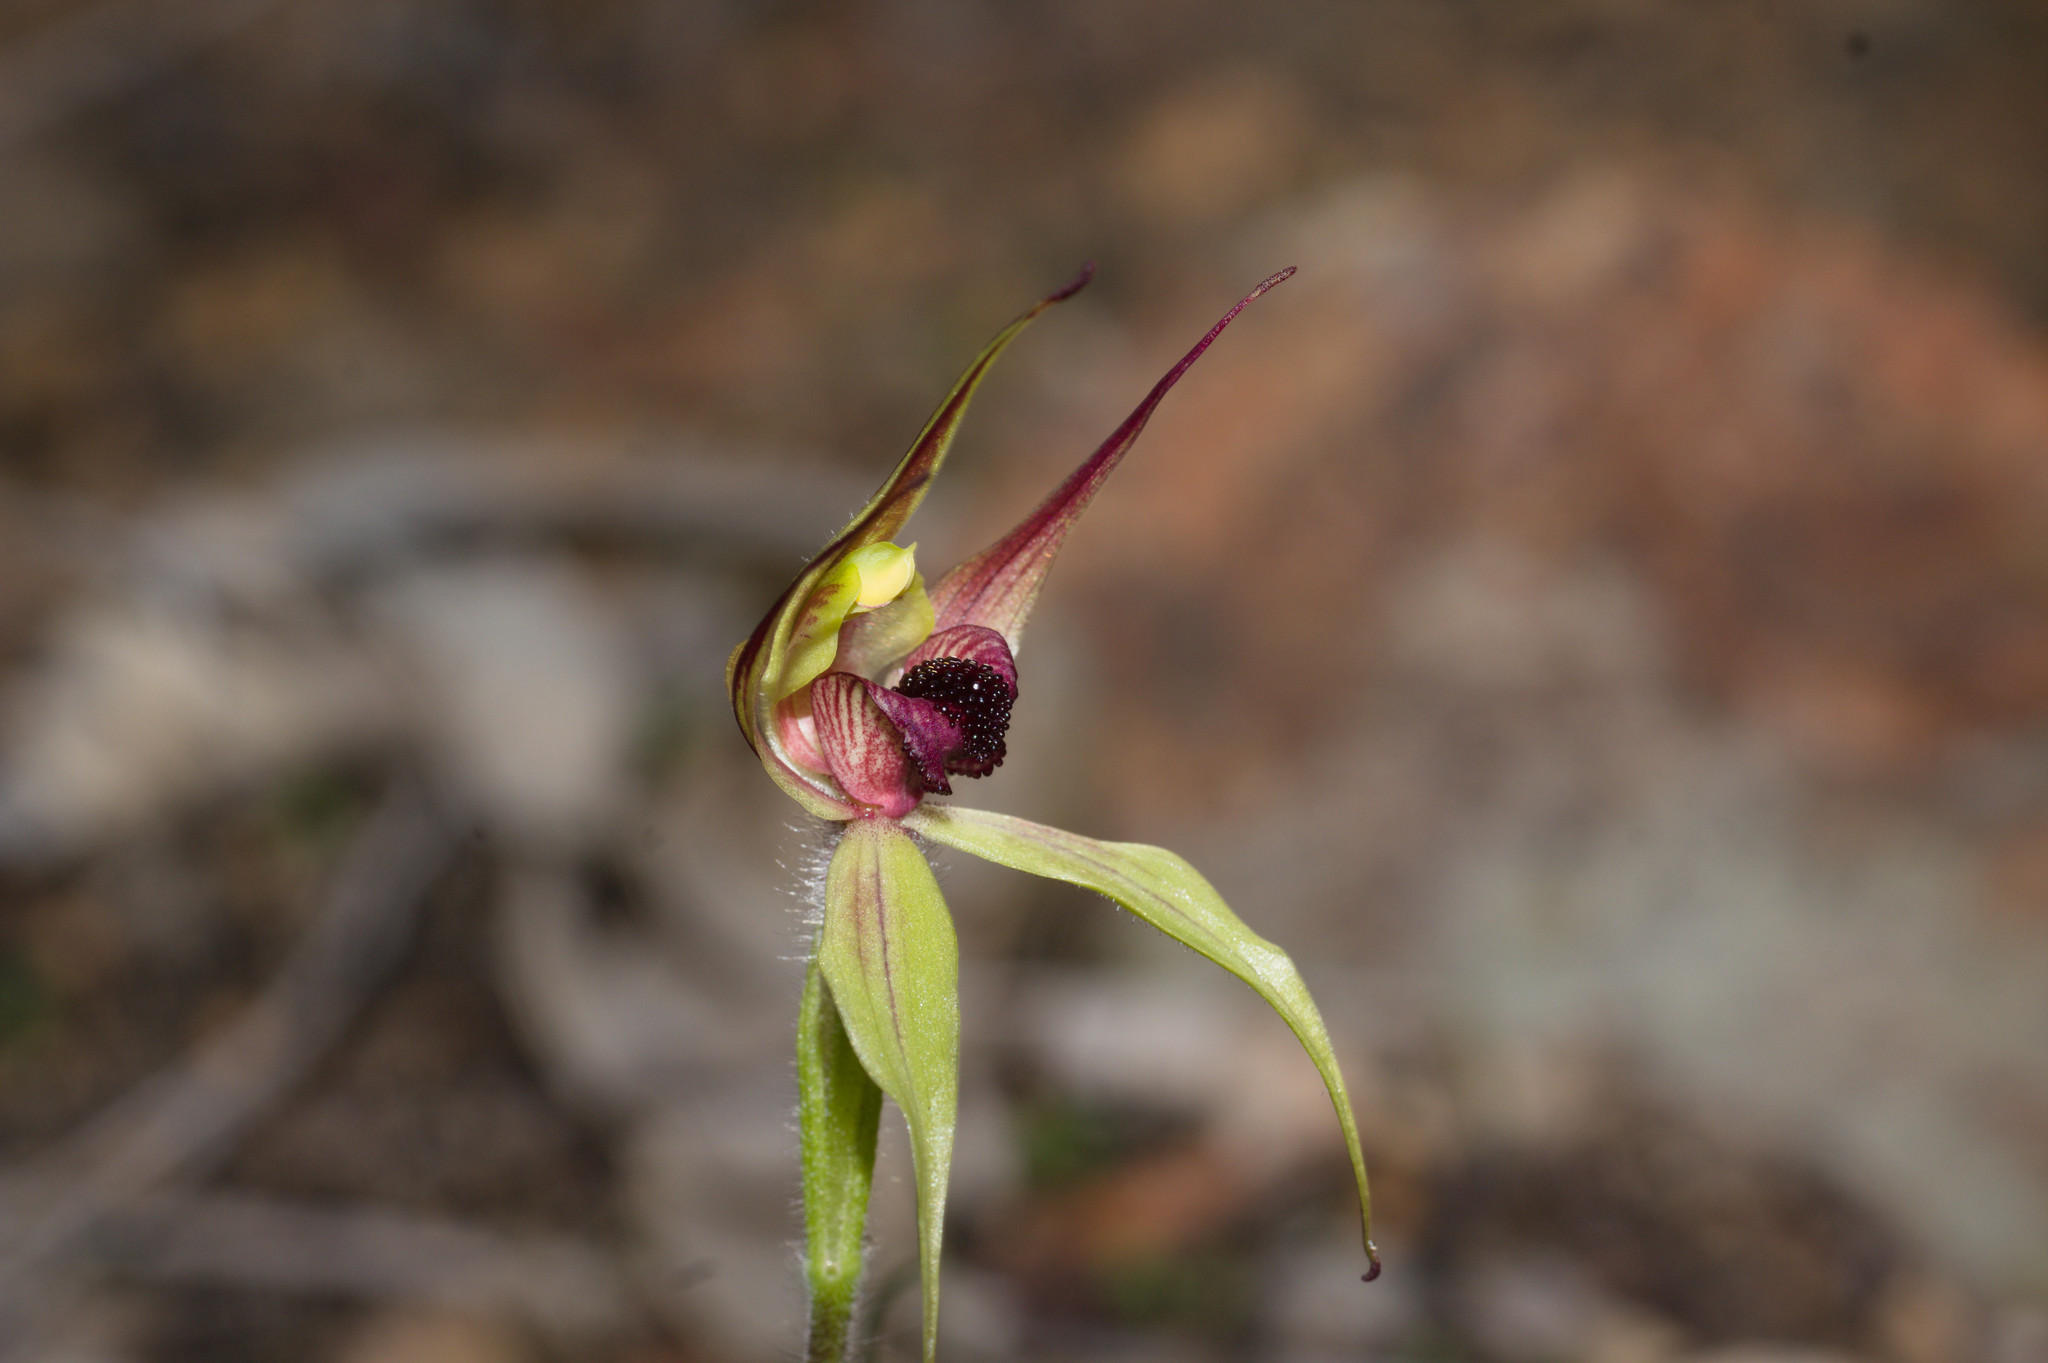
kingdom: Plantae
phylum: Tracheophyta
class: Liliopsida
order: Asparagales
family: Orchidaceae
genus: Caladenia
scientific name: Caladenia macrostylis
